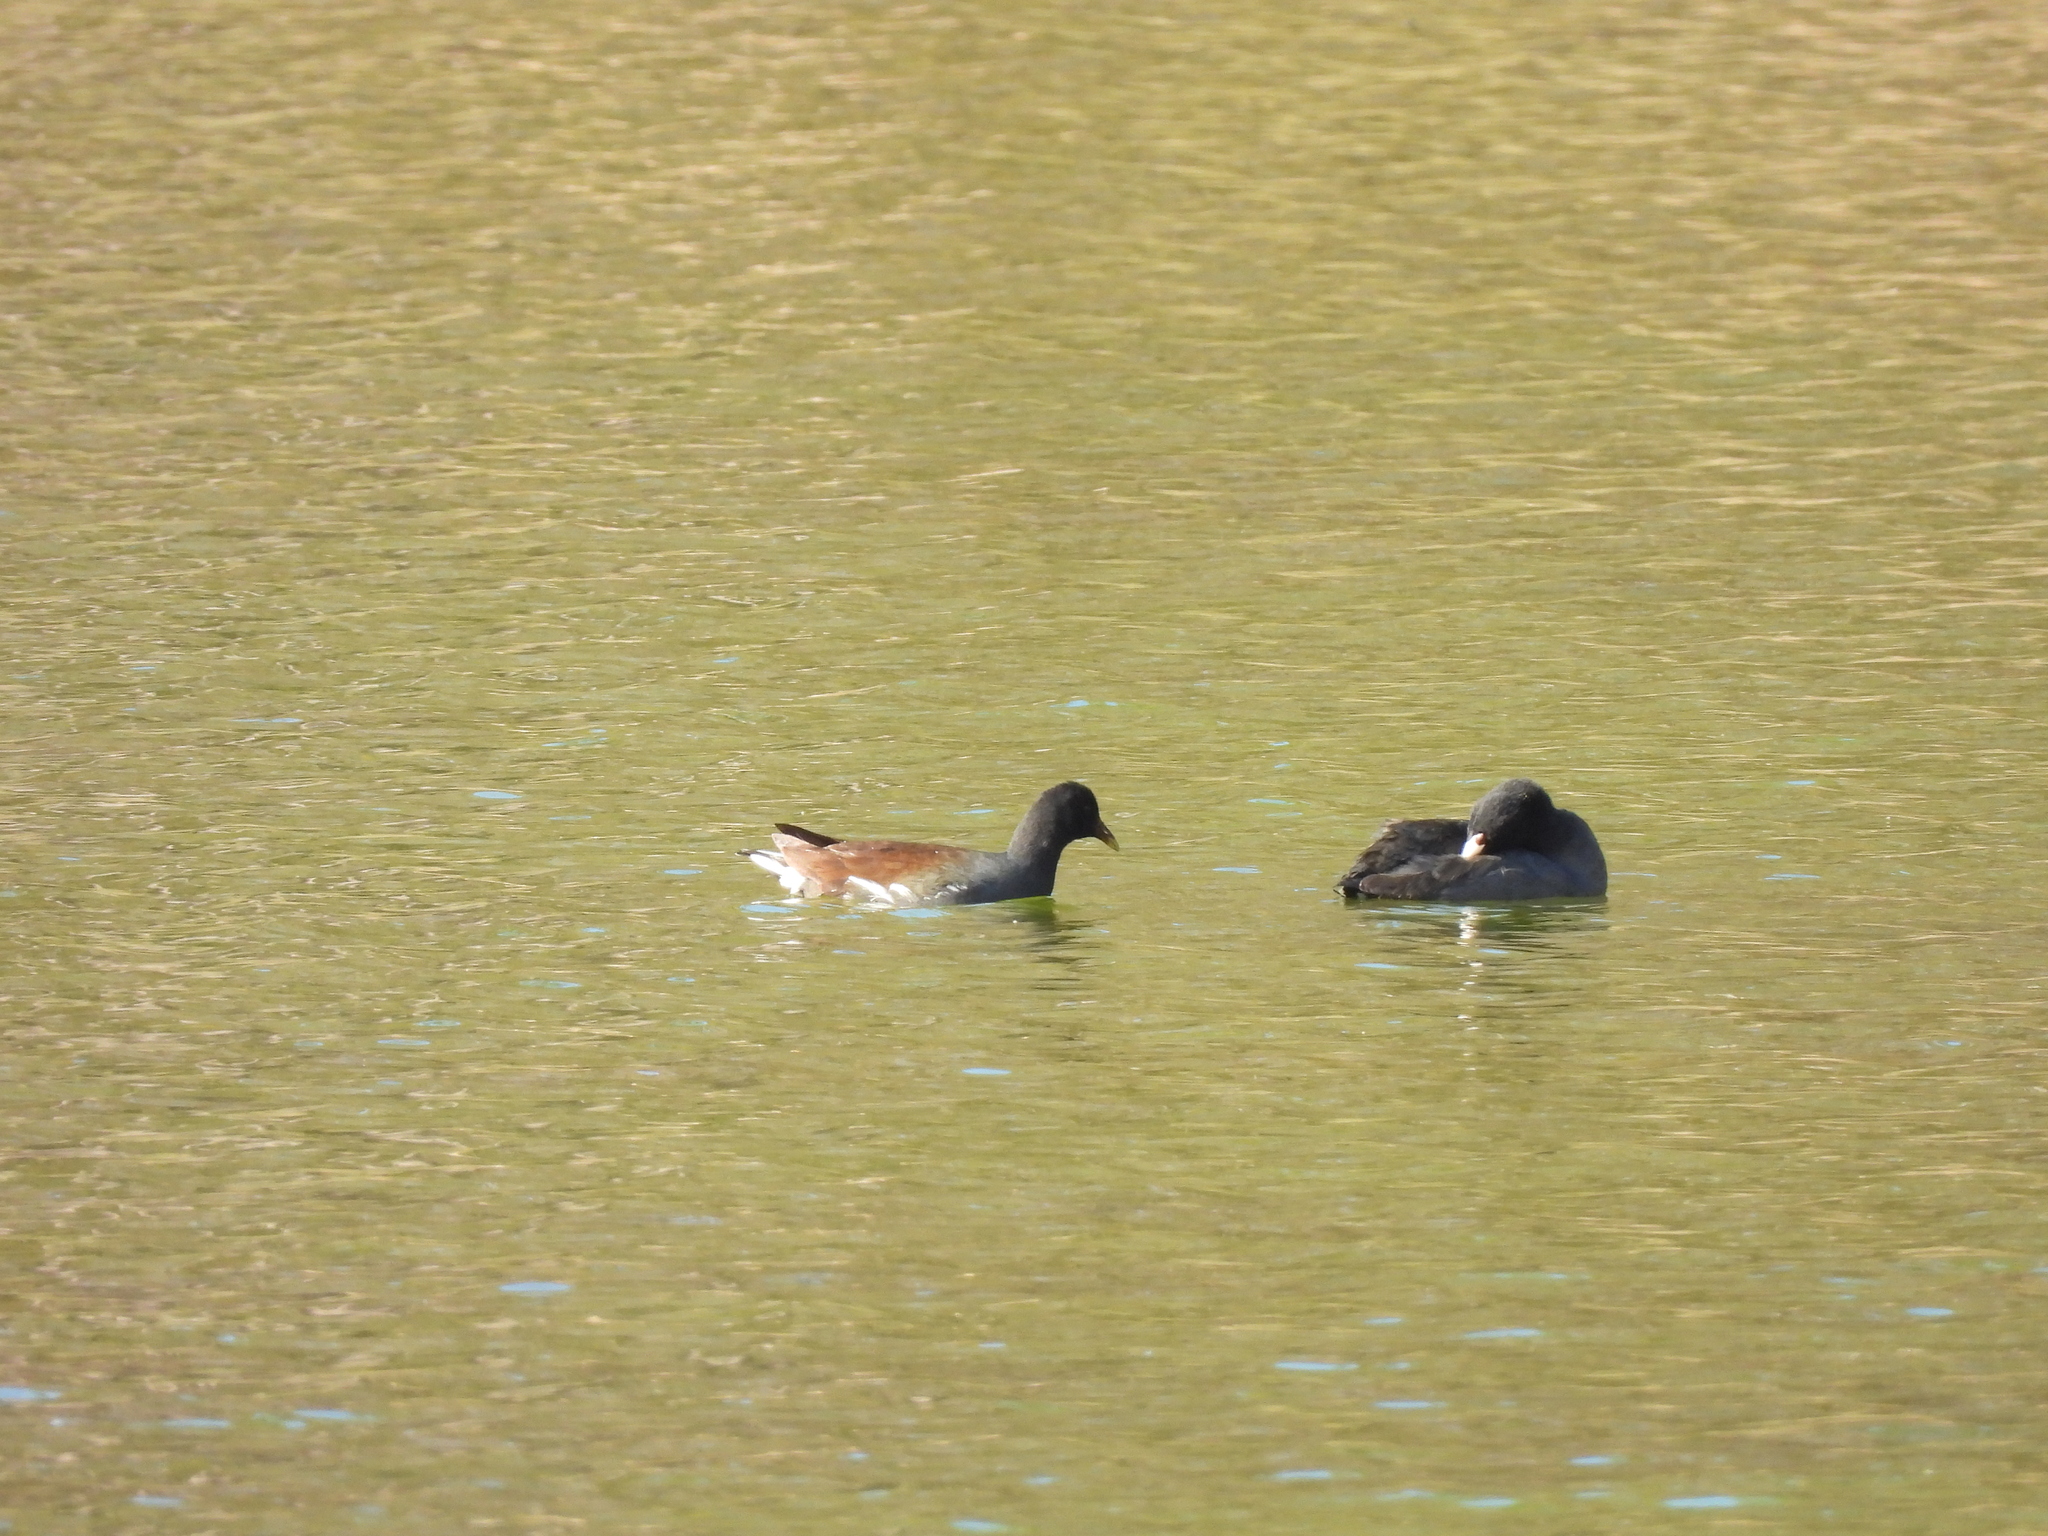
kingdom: Animalia
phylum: Chordata
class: Aves
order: Gruiformes
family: Rallidae
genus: Gallinula
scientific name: Gallinula chloropus
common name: Common moorhen
